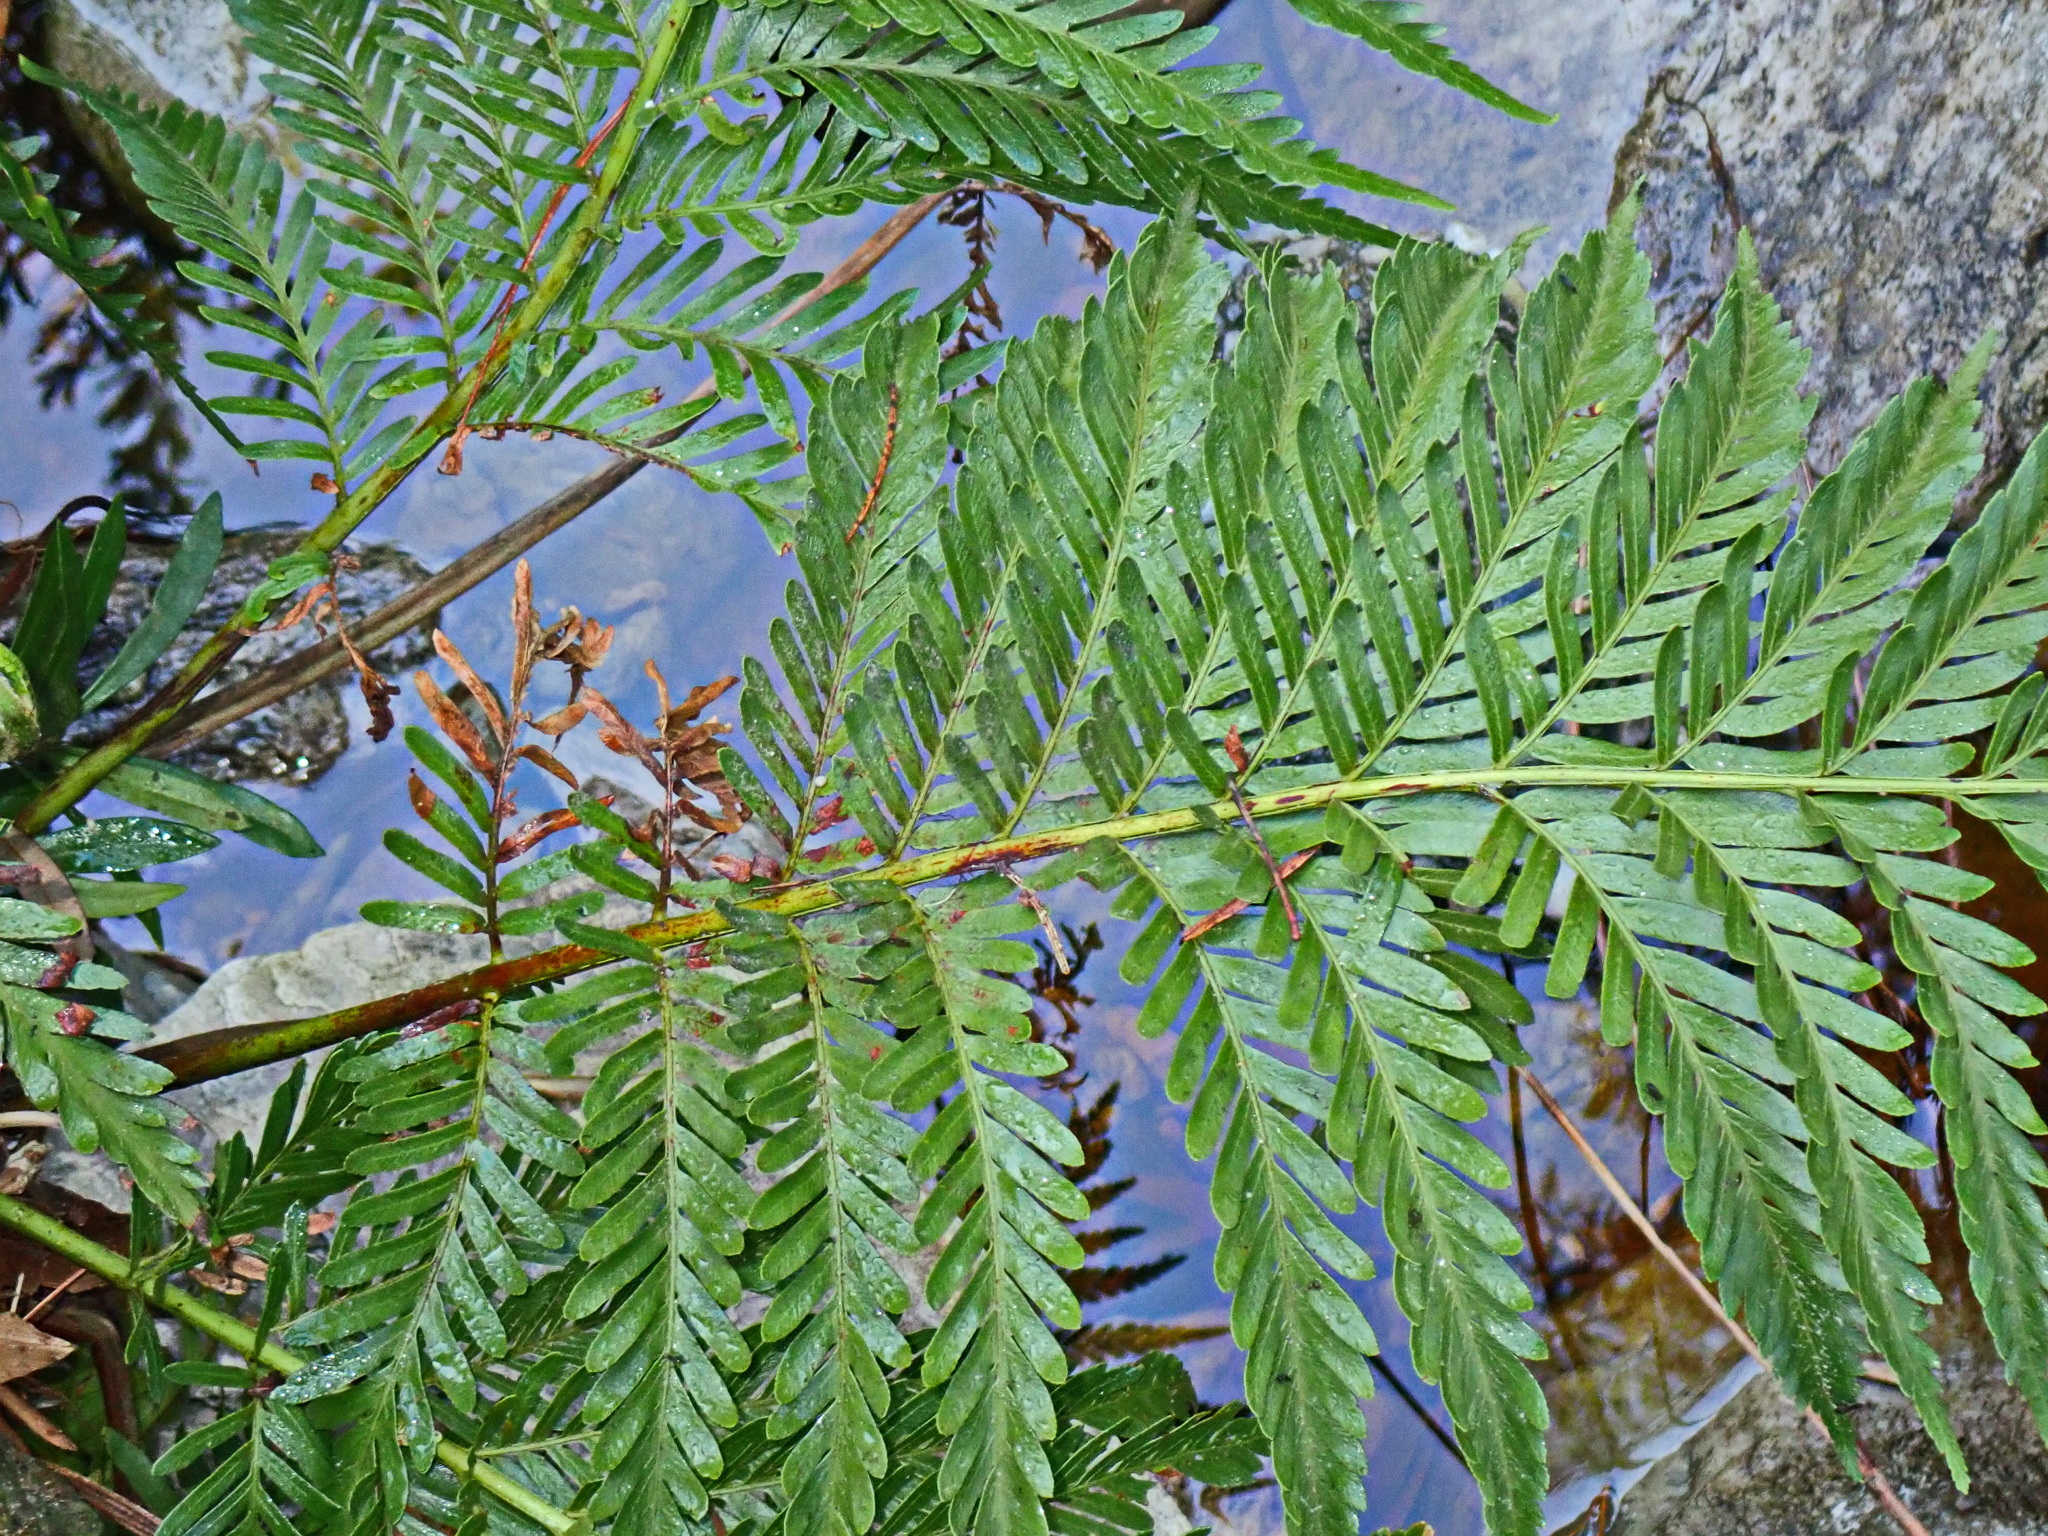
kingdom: Plantae
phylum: Tracheophyta
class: Polypodiopsida
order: Osmundales
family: Osmundaceae
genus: Todea
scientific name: Todea barbara
